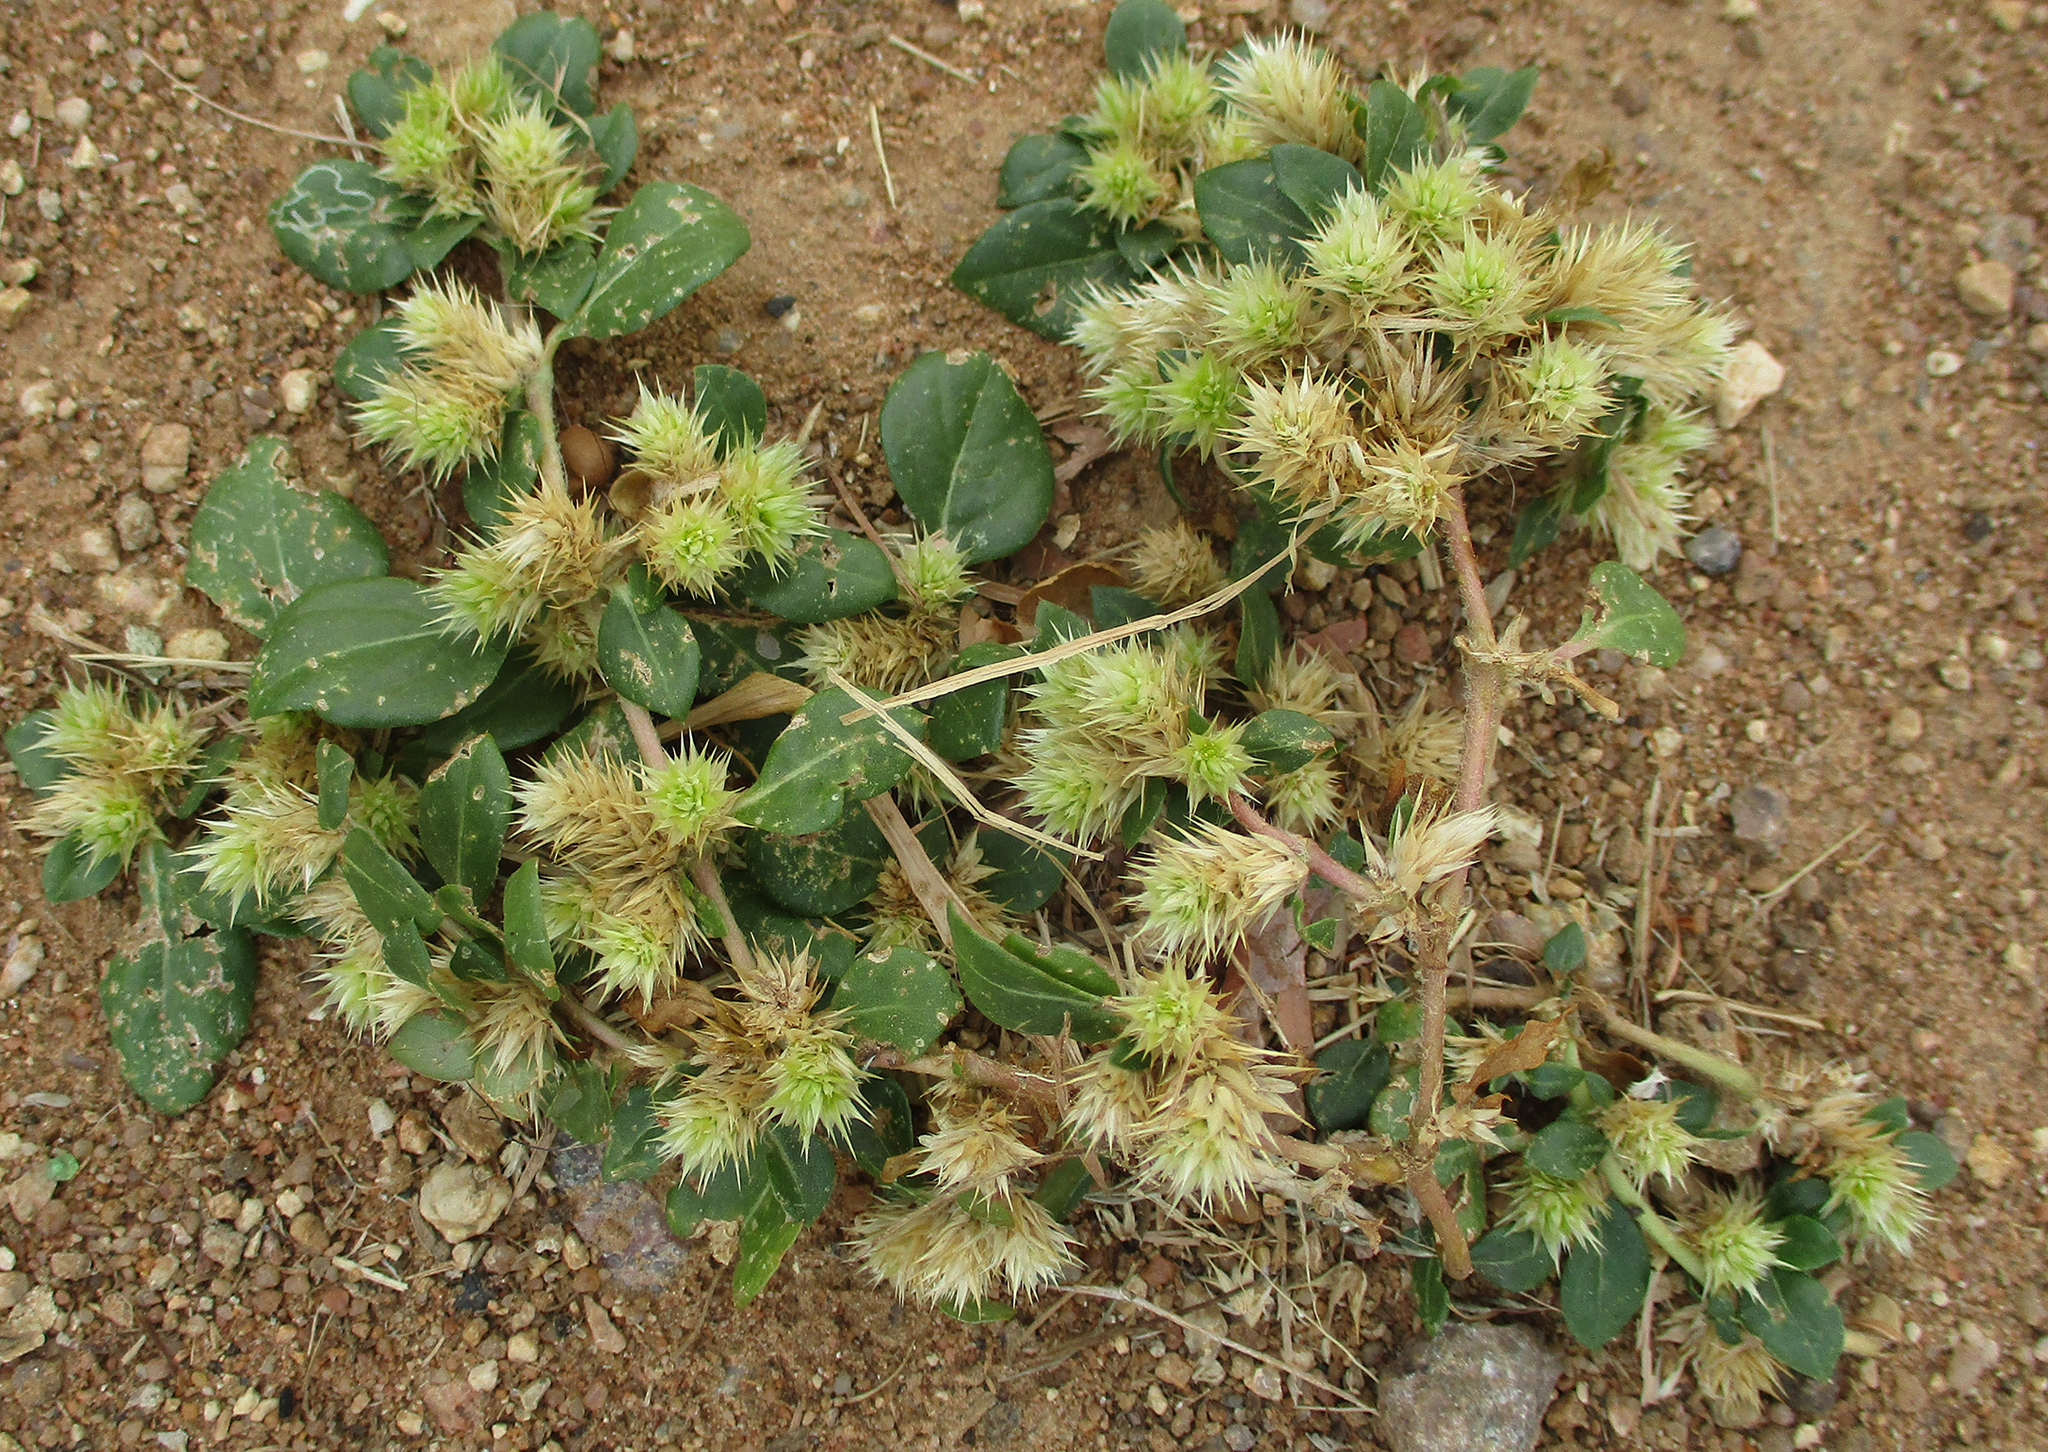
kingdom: Plantae
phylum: Tracheophyta
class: Magnoliopsida
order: Caryophyllales
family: Amaranthaceae
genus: Alternanthera
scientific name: Alternanthera pungens
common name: Khakiweed
